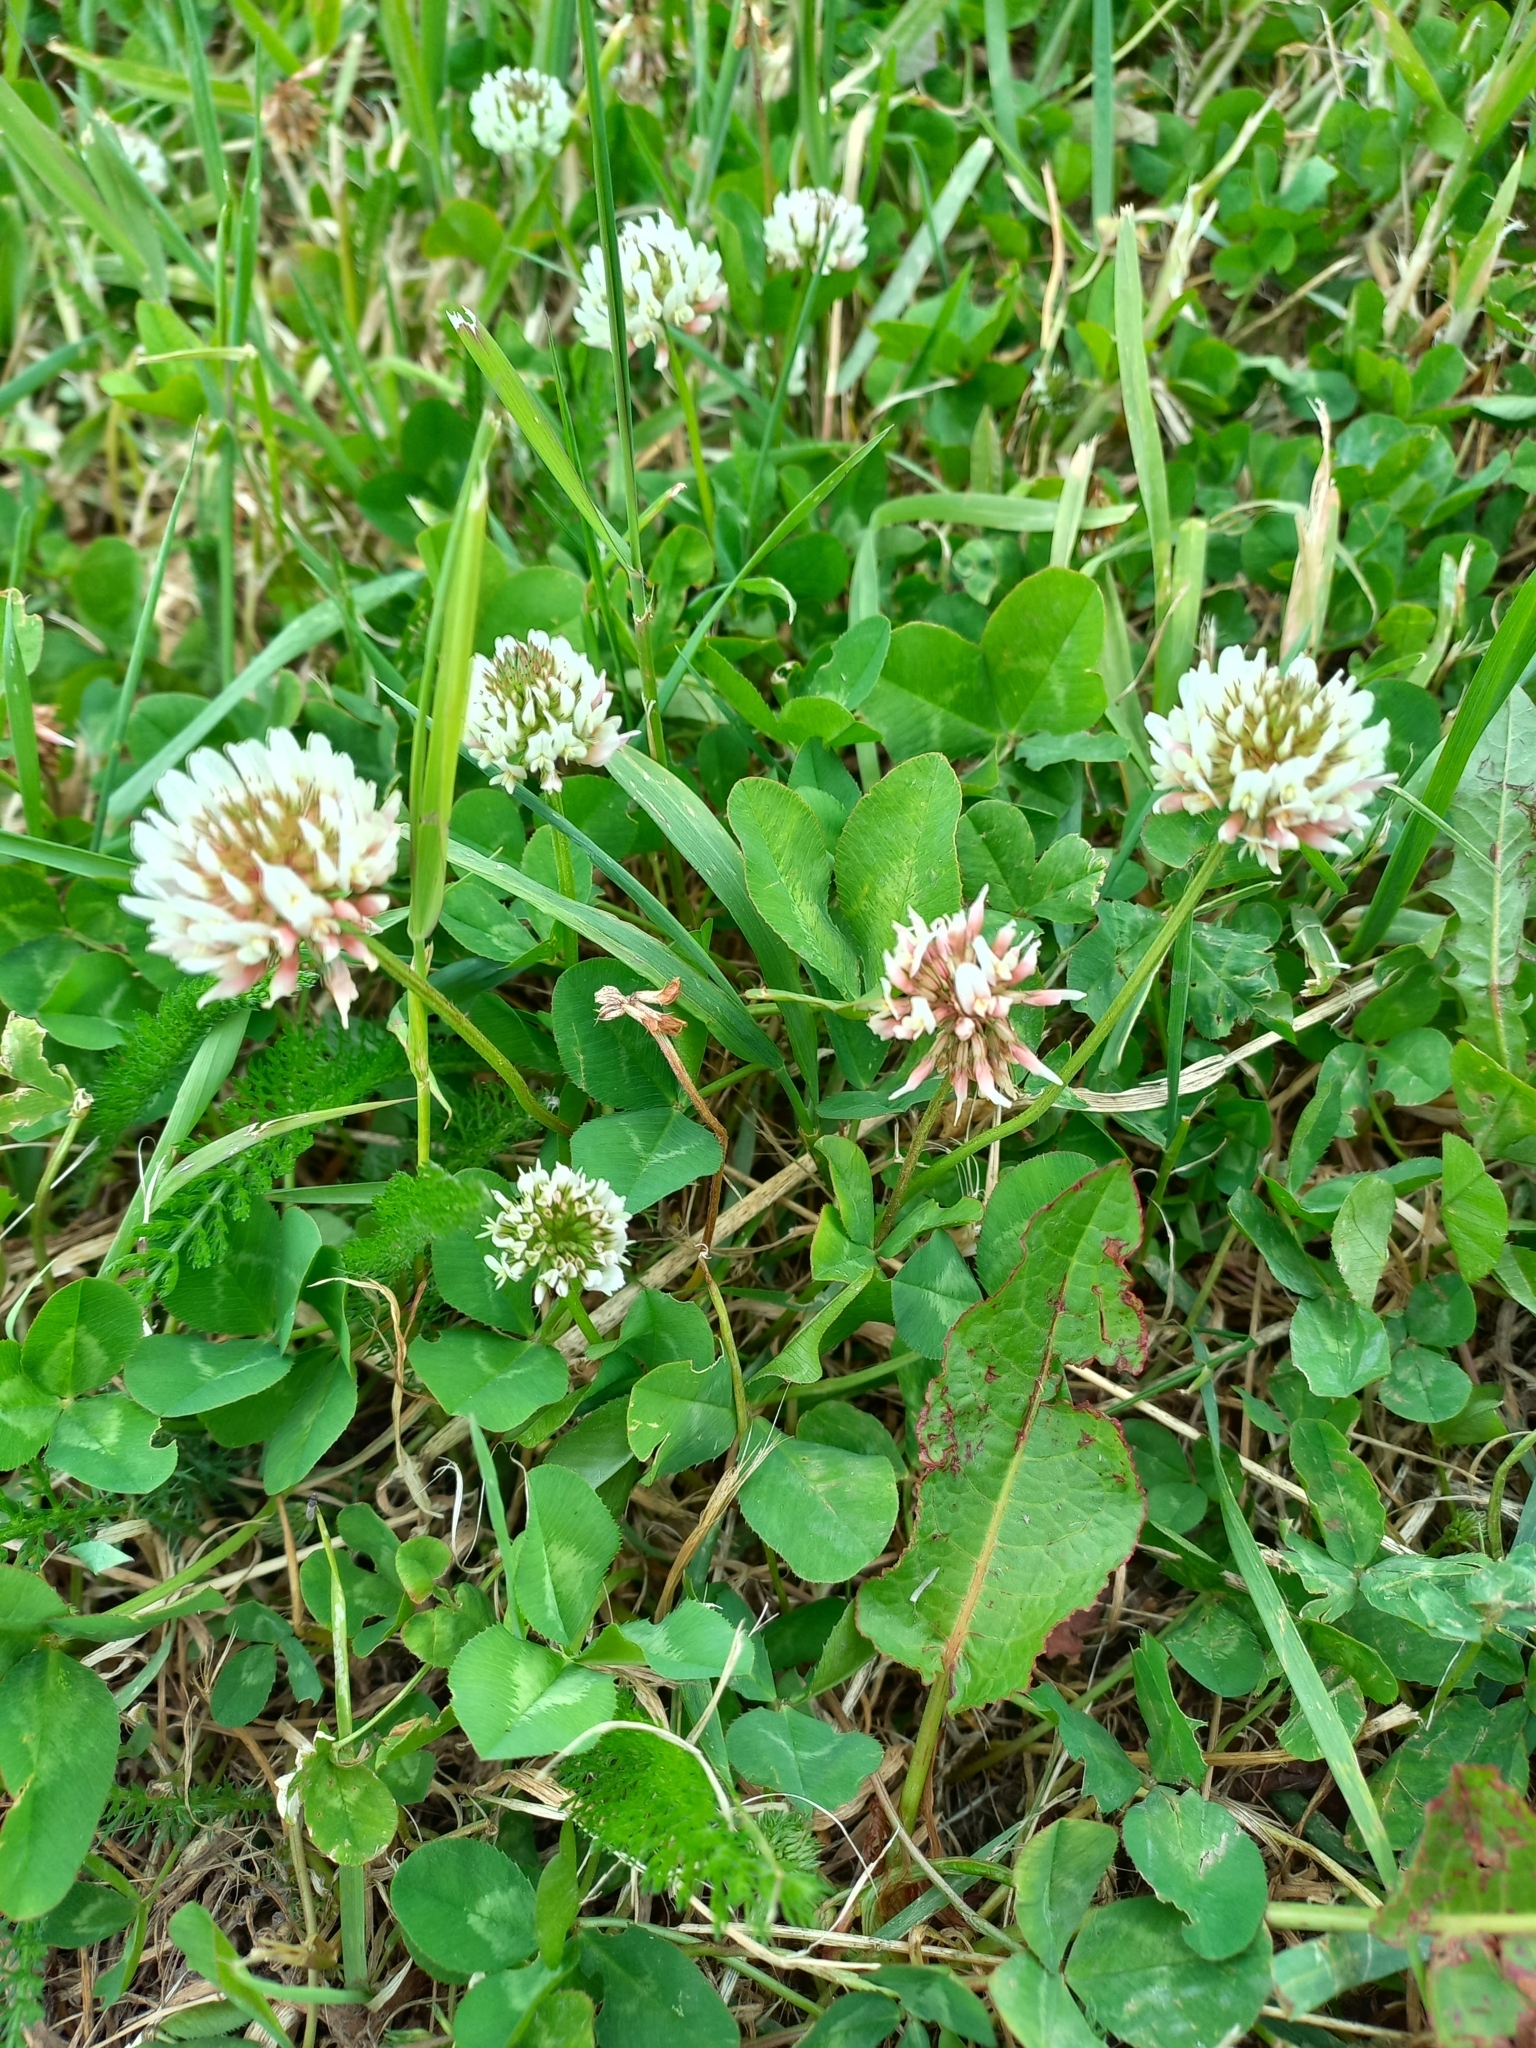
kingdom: Plantae
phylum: Tracheophyta
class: Magnoliopsida
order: Fabales
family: Fabaceae
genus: Trifolium
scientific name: Trifolium repens
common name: White clover
